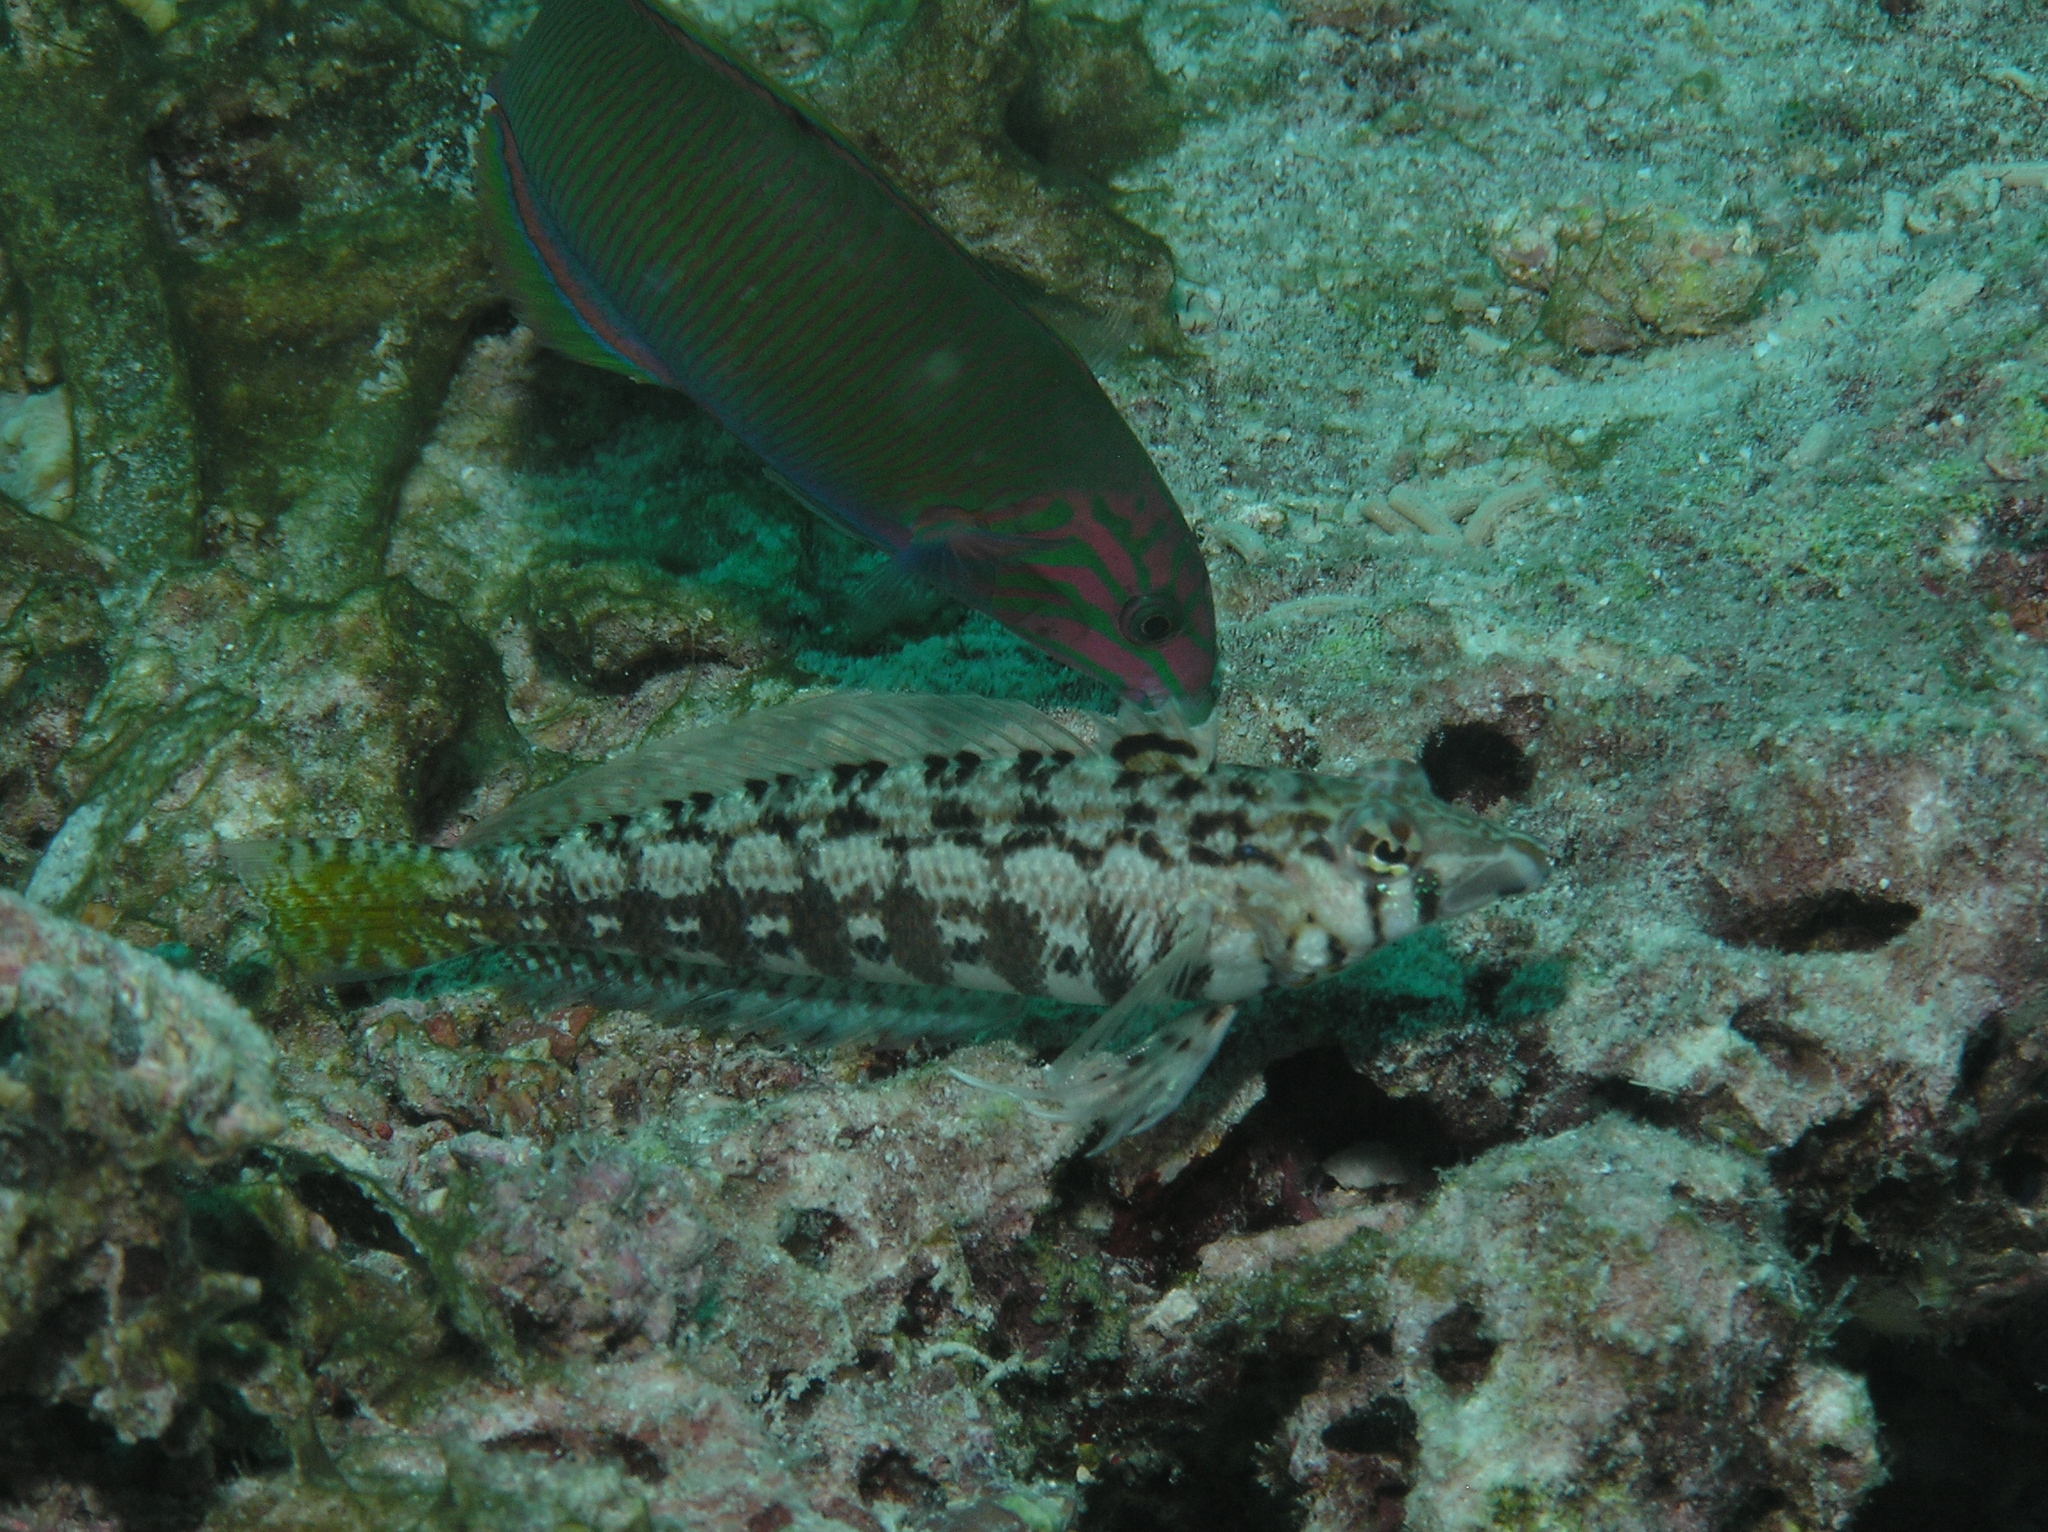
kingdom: Animalia
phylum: Chordata
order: Perciformes
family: Pinguipedidae
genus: Parapercis
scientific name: Parapercis cylindrica
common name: Cylindrical sandperch
